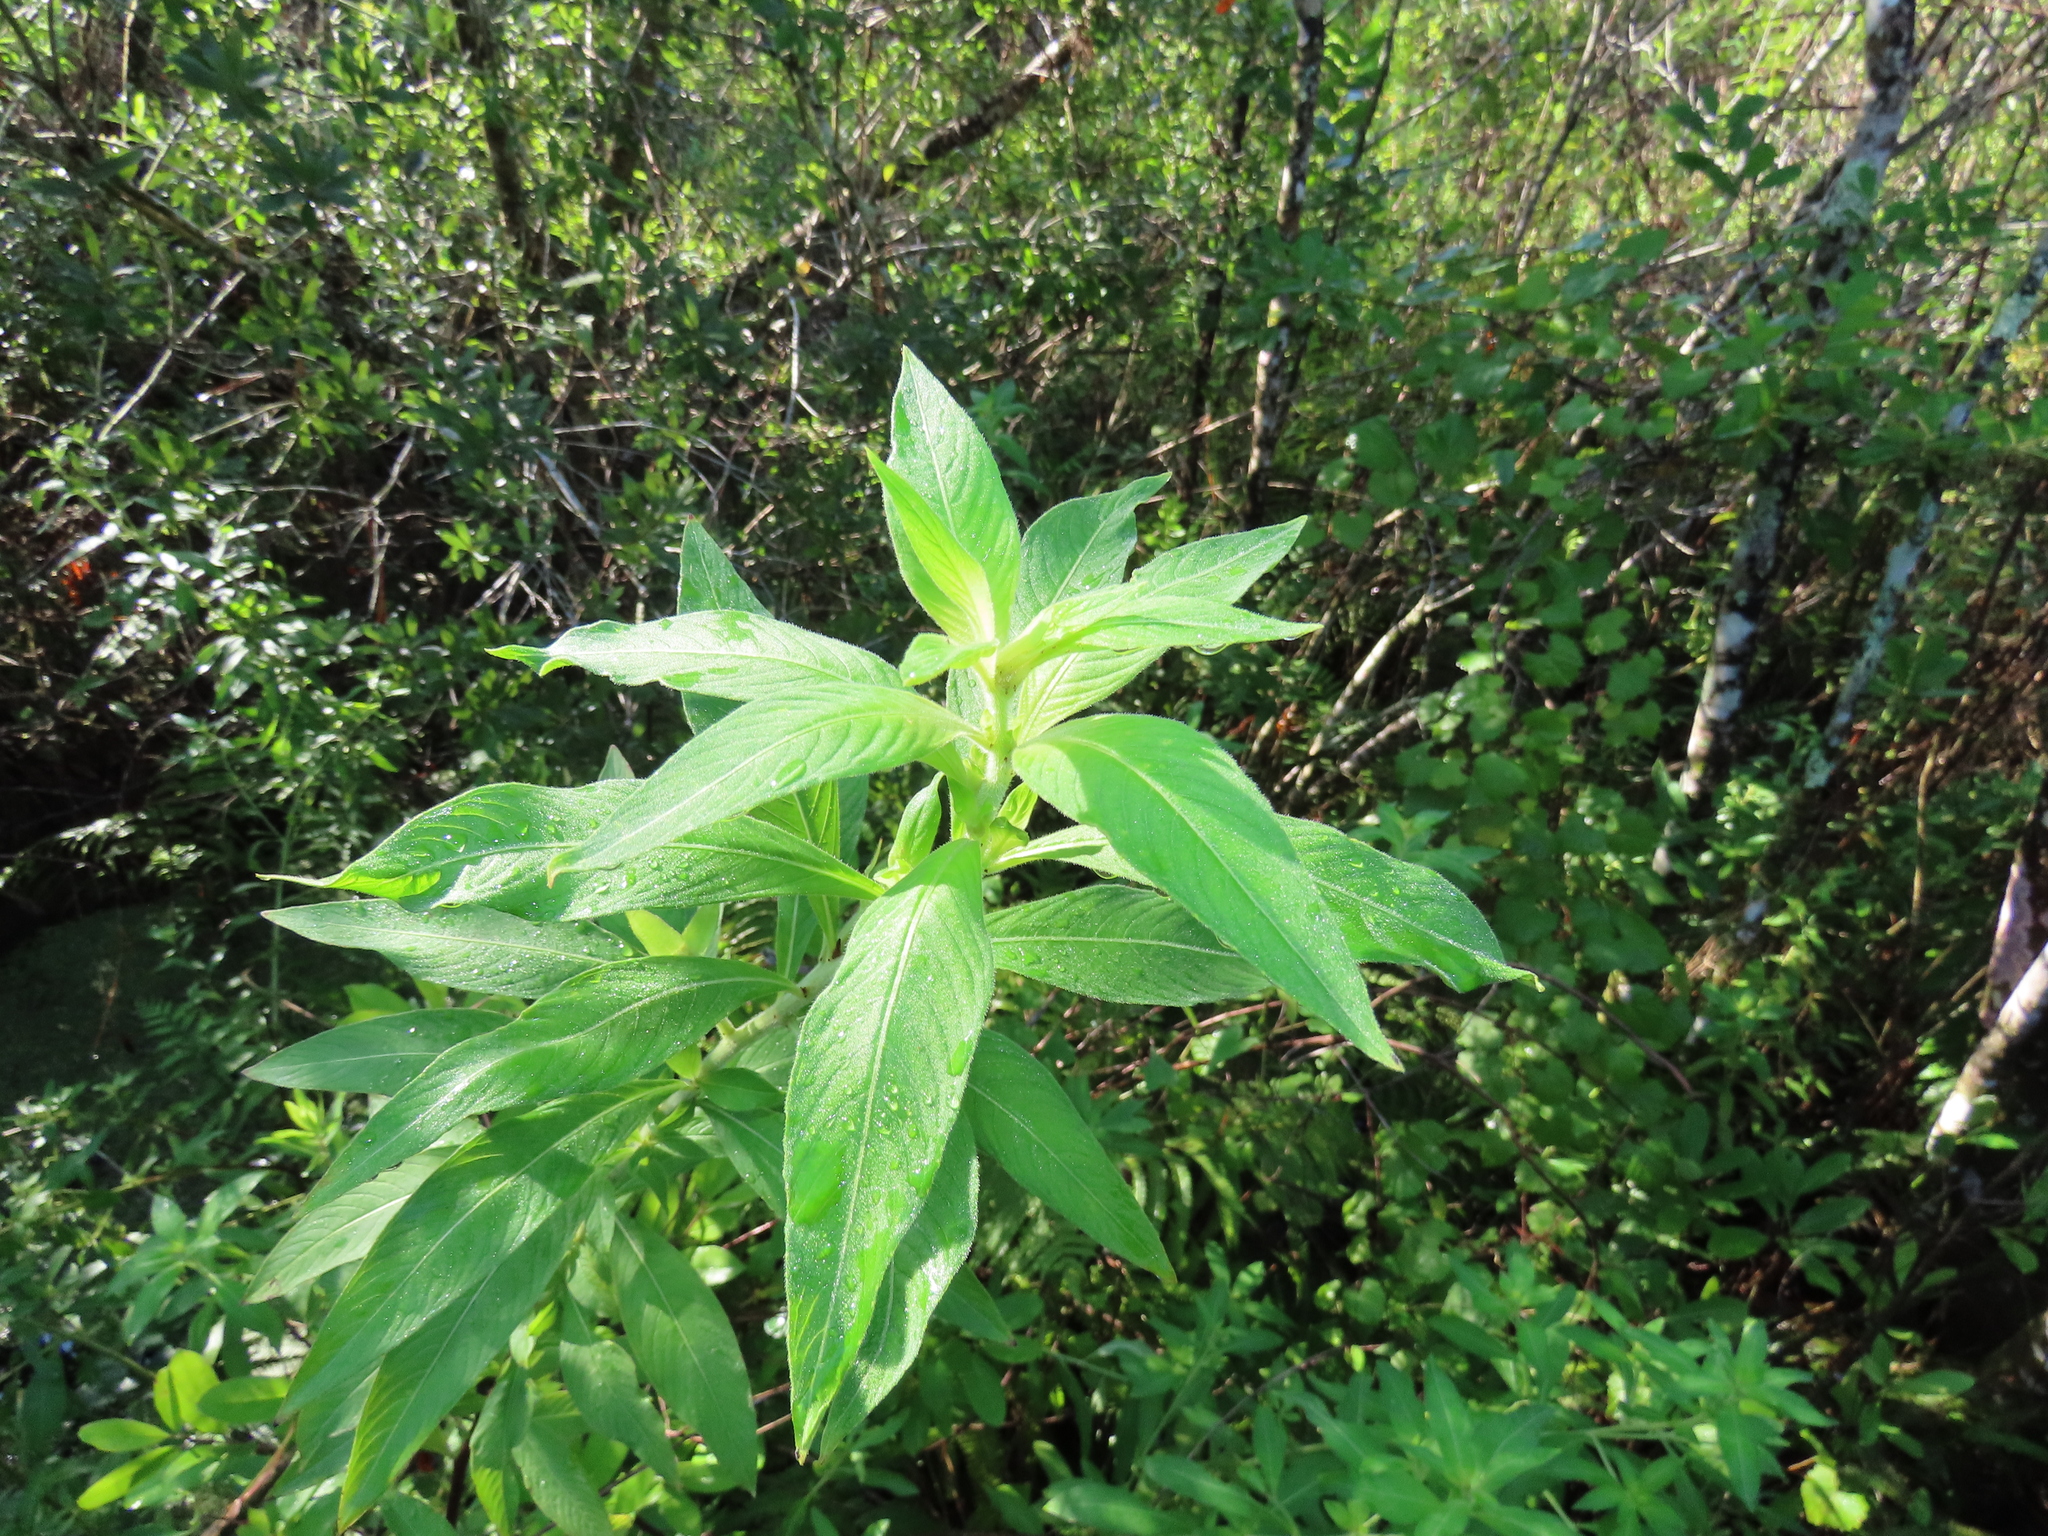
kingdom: Plantae
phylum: Tracheophyta
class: Magnoliopsida
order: Myrtales
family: Onagraceae
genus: Ludwigia
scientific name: Ludwigia peruviana
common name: Peruvian primrose-willow
